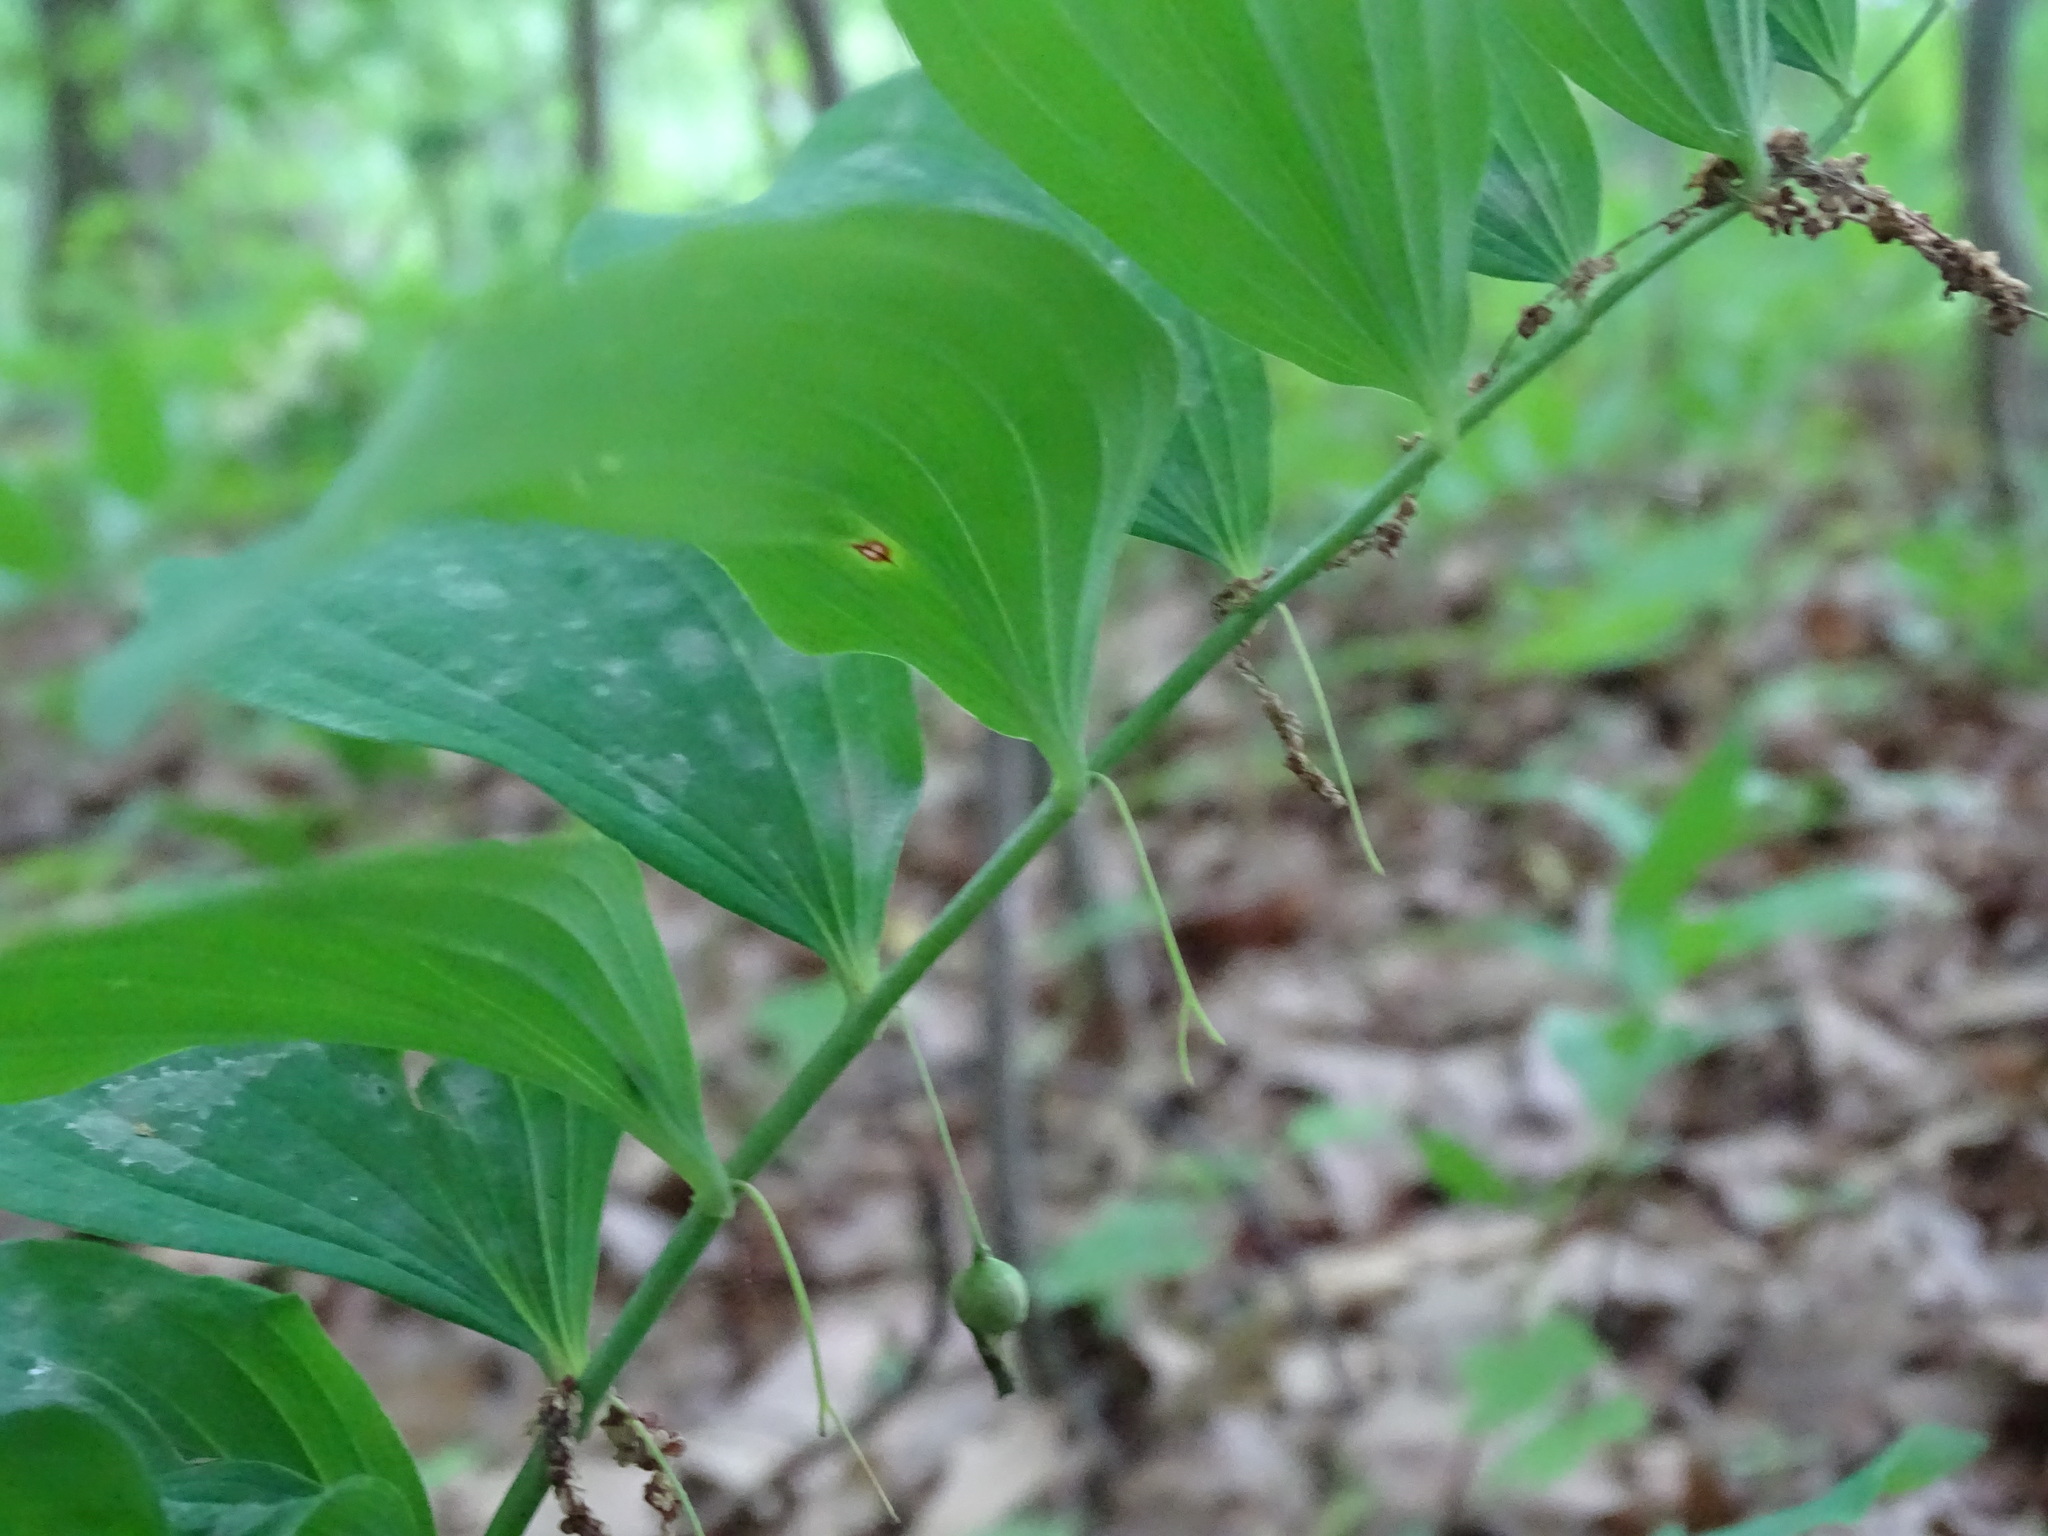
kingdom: Plantae
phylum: Tracheophyta
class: Liliopsida
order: Asparagales
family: Asparagaceae
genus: Polygonatum
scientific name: Polygonatum pubescens
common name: Downy solomon's seal
